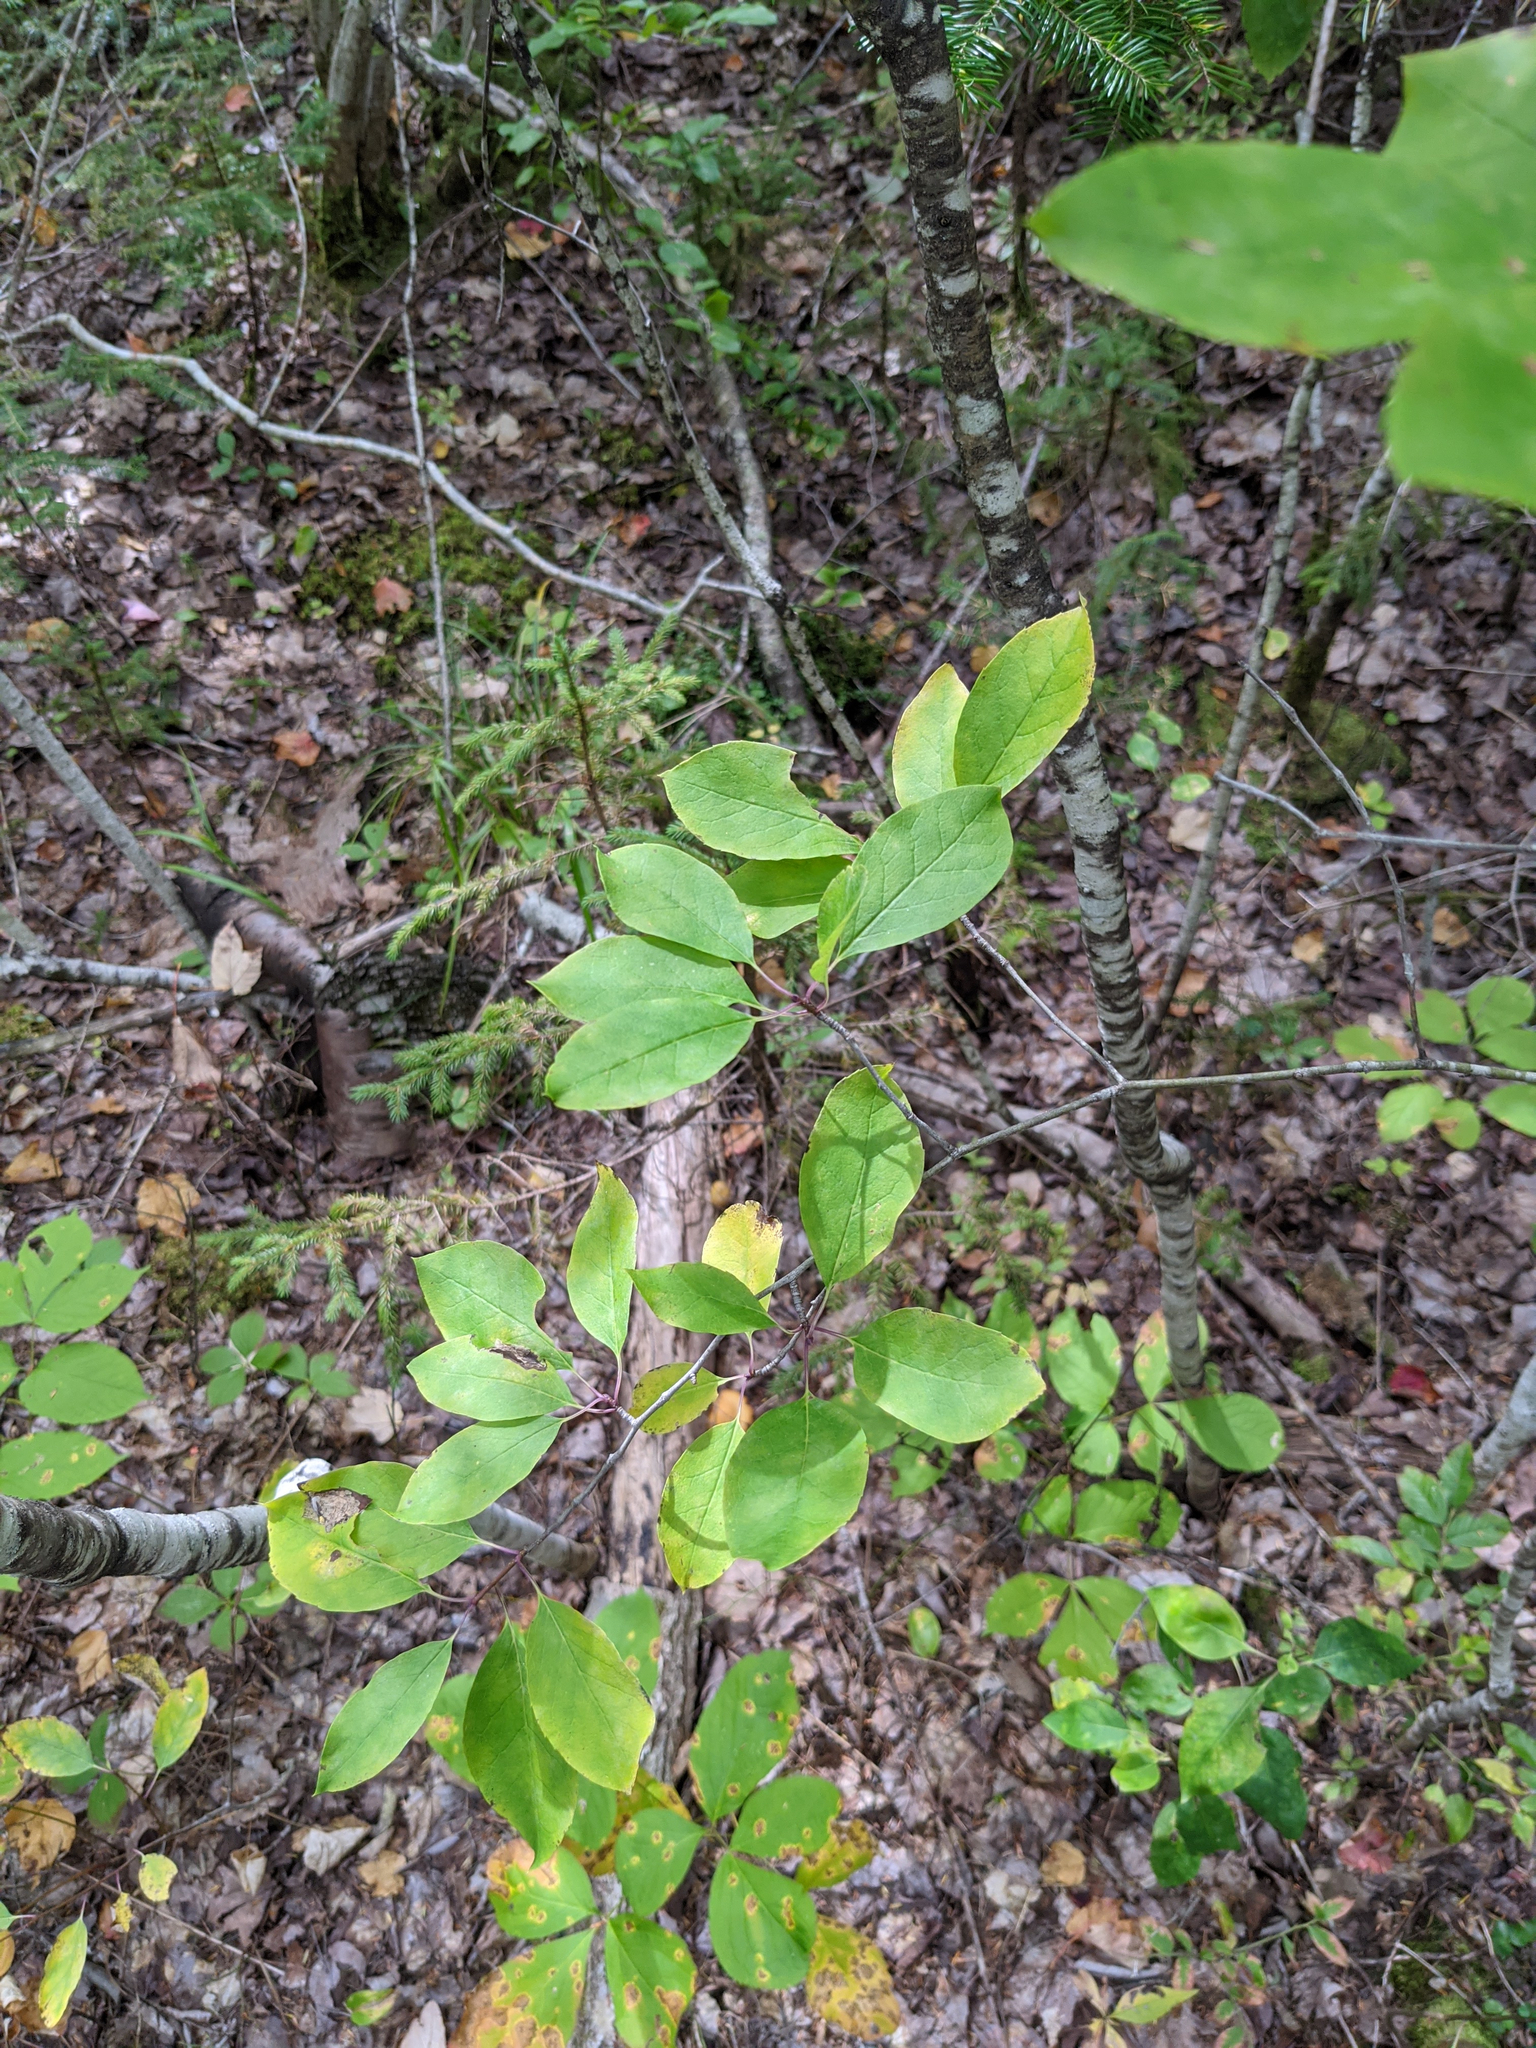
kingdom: Plantae
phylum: Tracheophyta
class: Magnoliopsida
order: Aquifoliales
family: Aquifoliaceae
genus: Ilex
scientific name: Ilex mucronata
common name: Catberry
